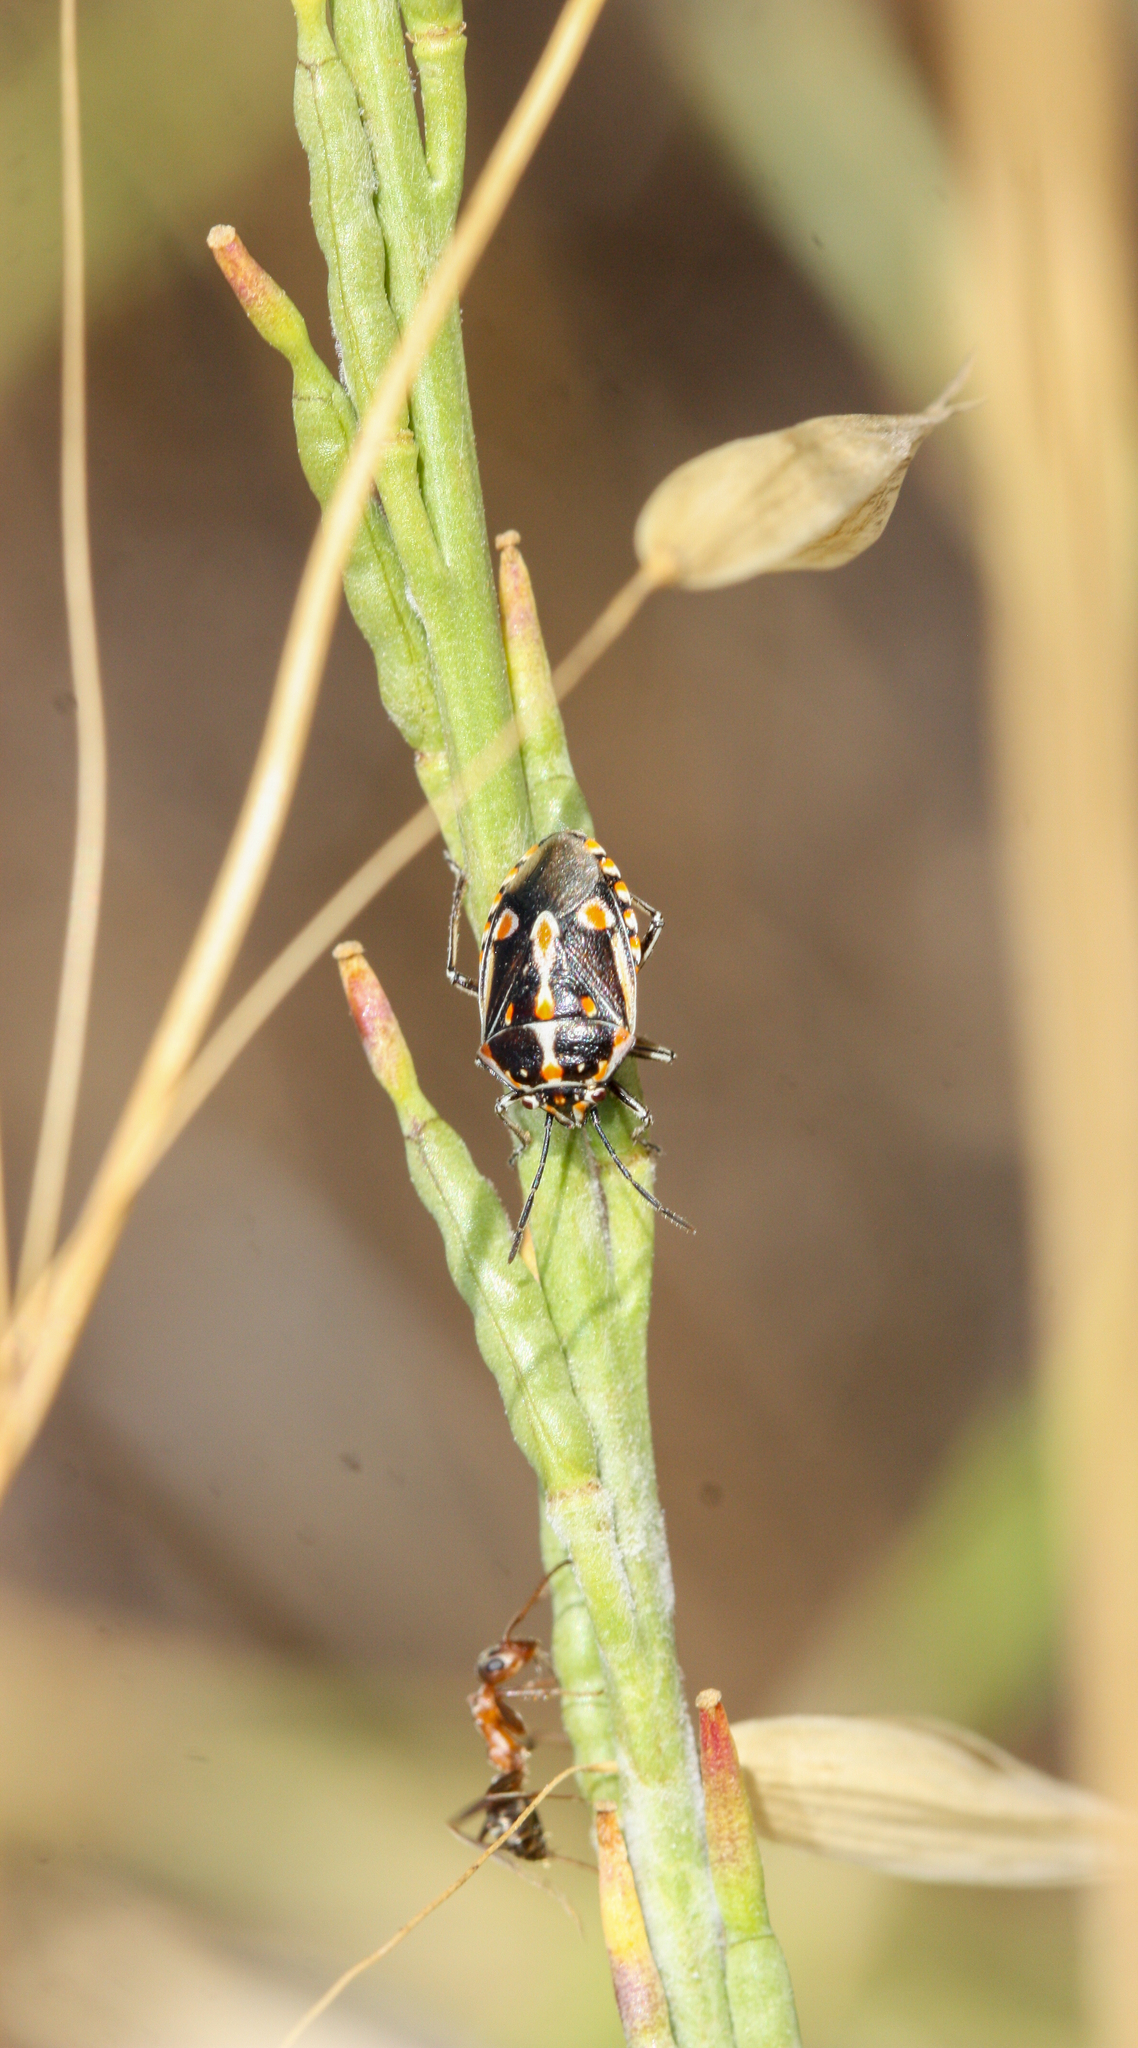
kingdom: Animalia
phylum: Arthropoda
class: Insecta
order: Hemiptera
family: Pentatomidae
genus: Bagrada
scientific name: Bagrada hilaris
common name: Bagrada bug
